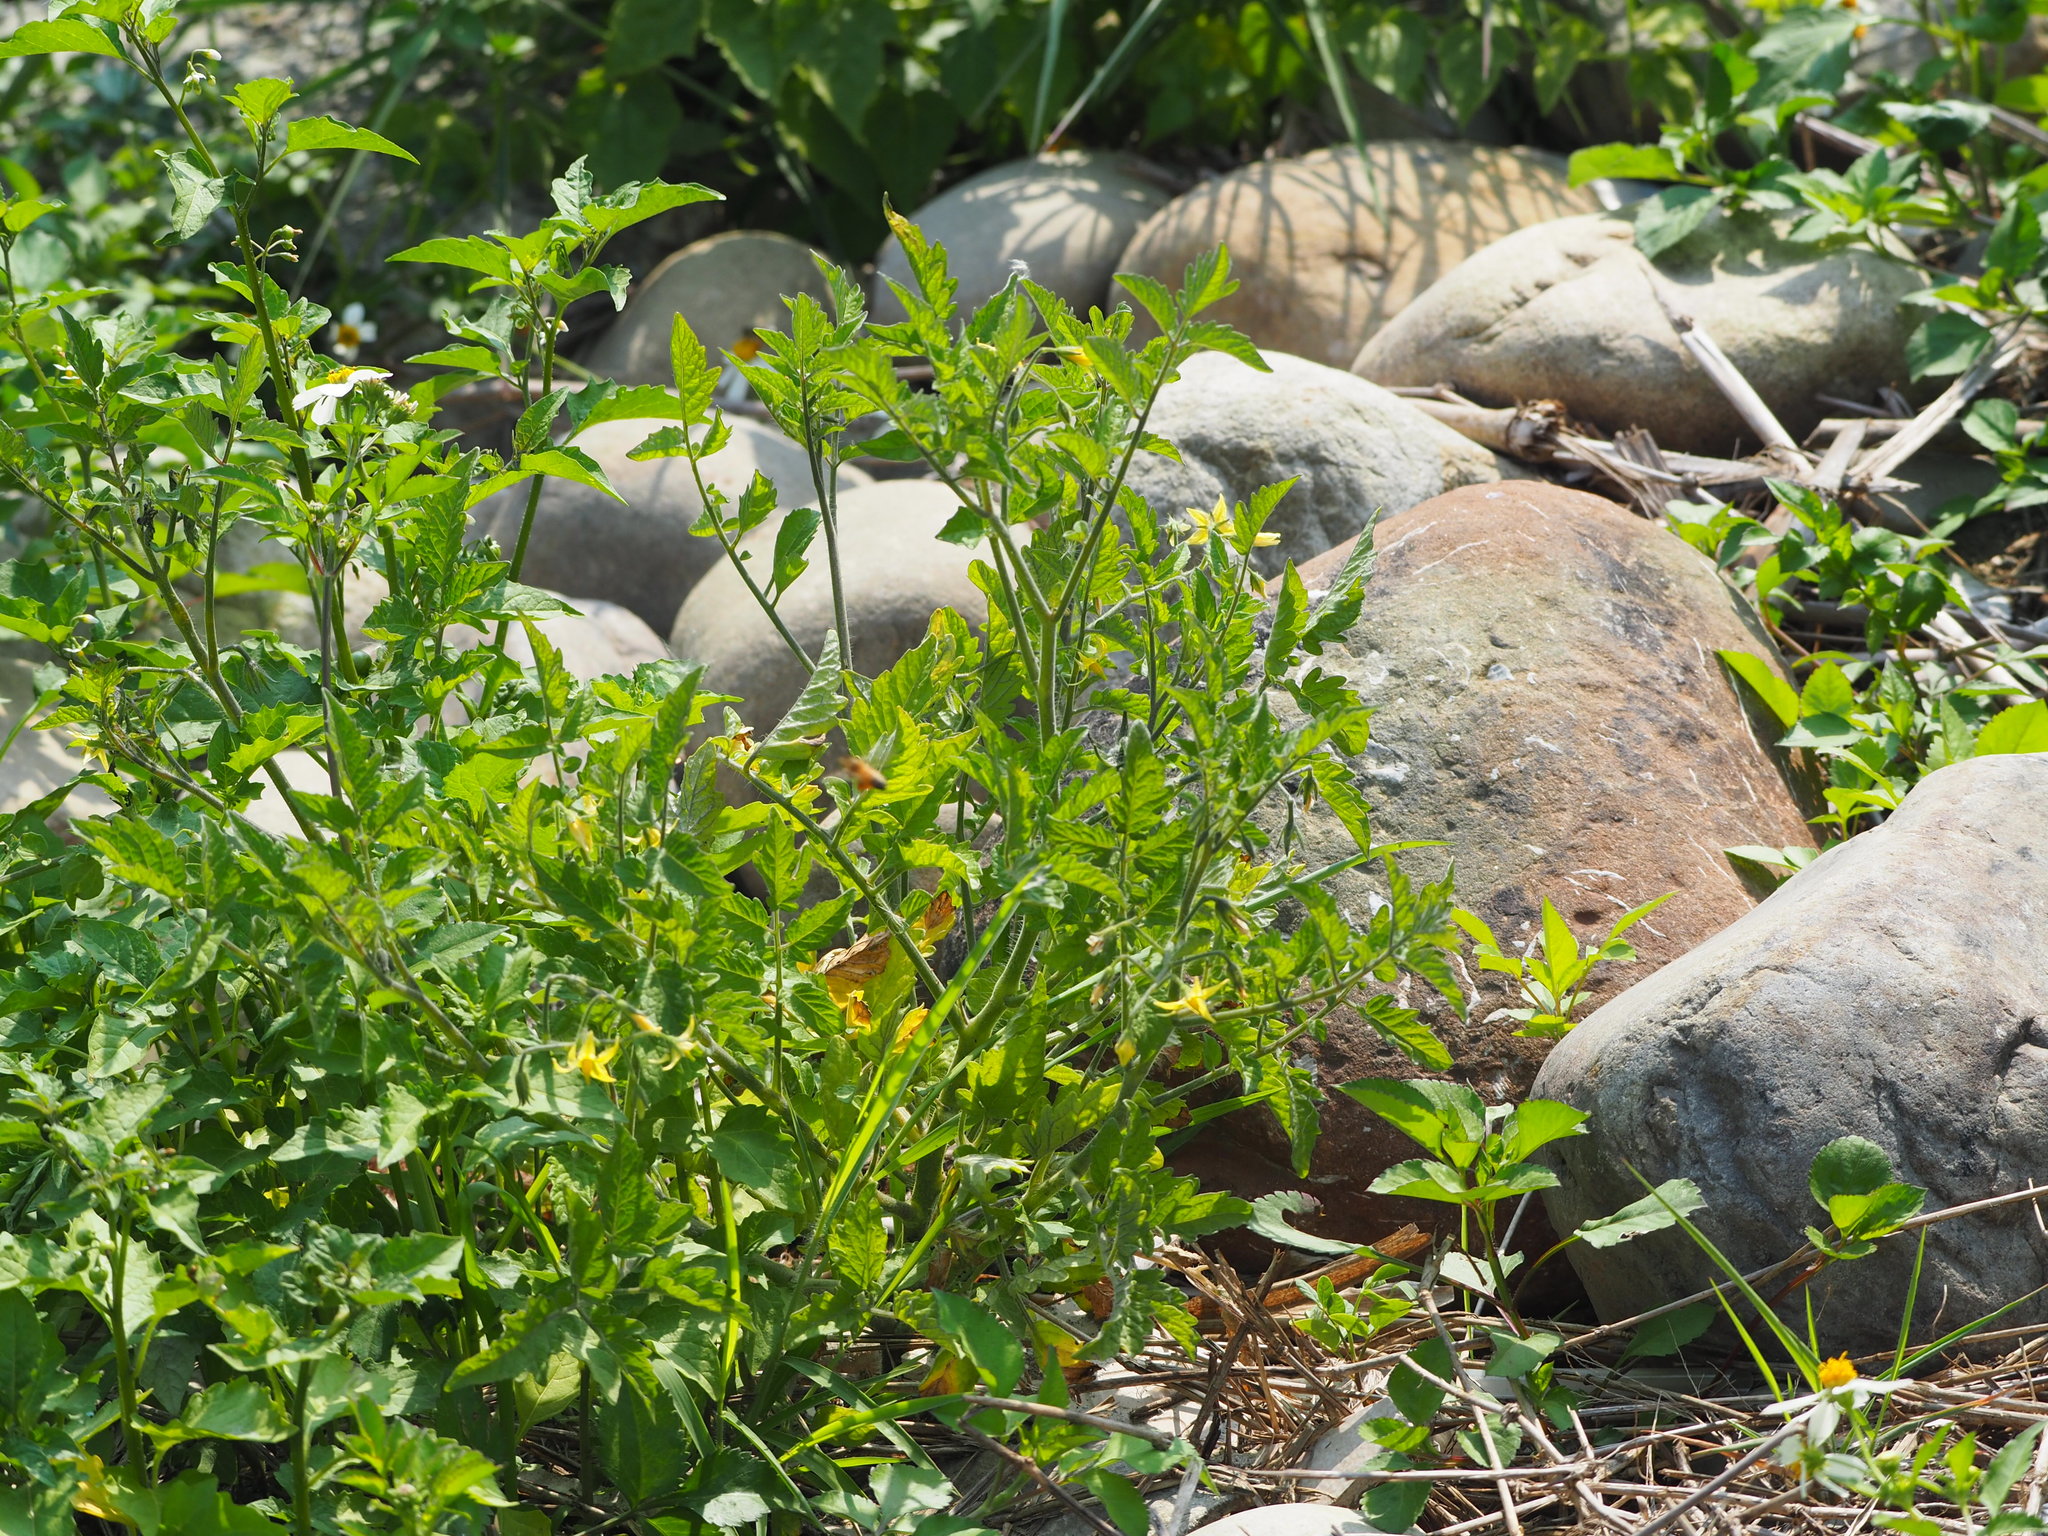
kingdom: Plantae
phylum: Tracheophyta
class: Magnoliopsida
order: Solanales
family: Solanaceae
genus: Solanum
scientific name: Solanum lycopersicum
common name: Garden tomato
